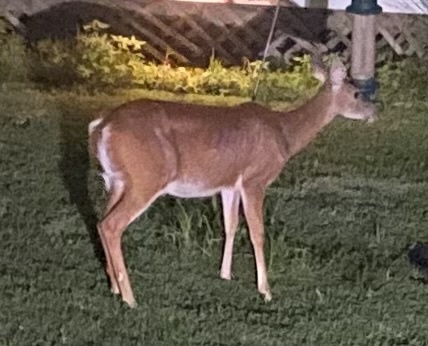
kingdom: Animalia
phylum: Chordata
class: Mammalia
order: Artiodactyla
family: Cervidae
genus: Odocoileus
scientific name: Odocoileus virginianus
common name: White-tailed deer
